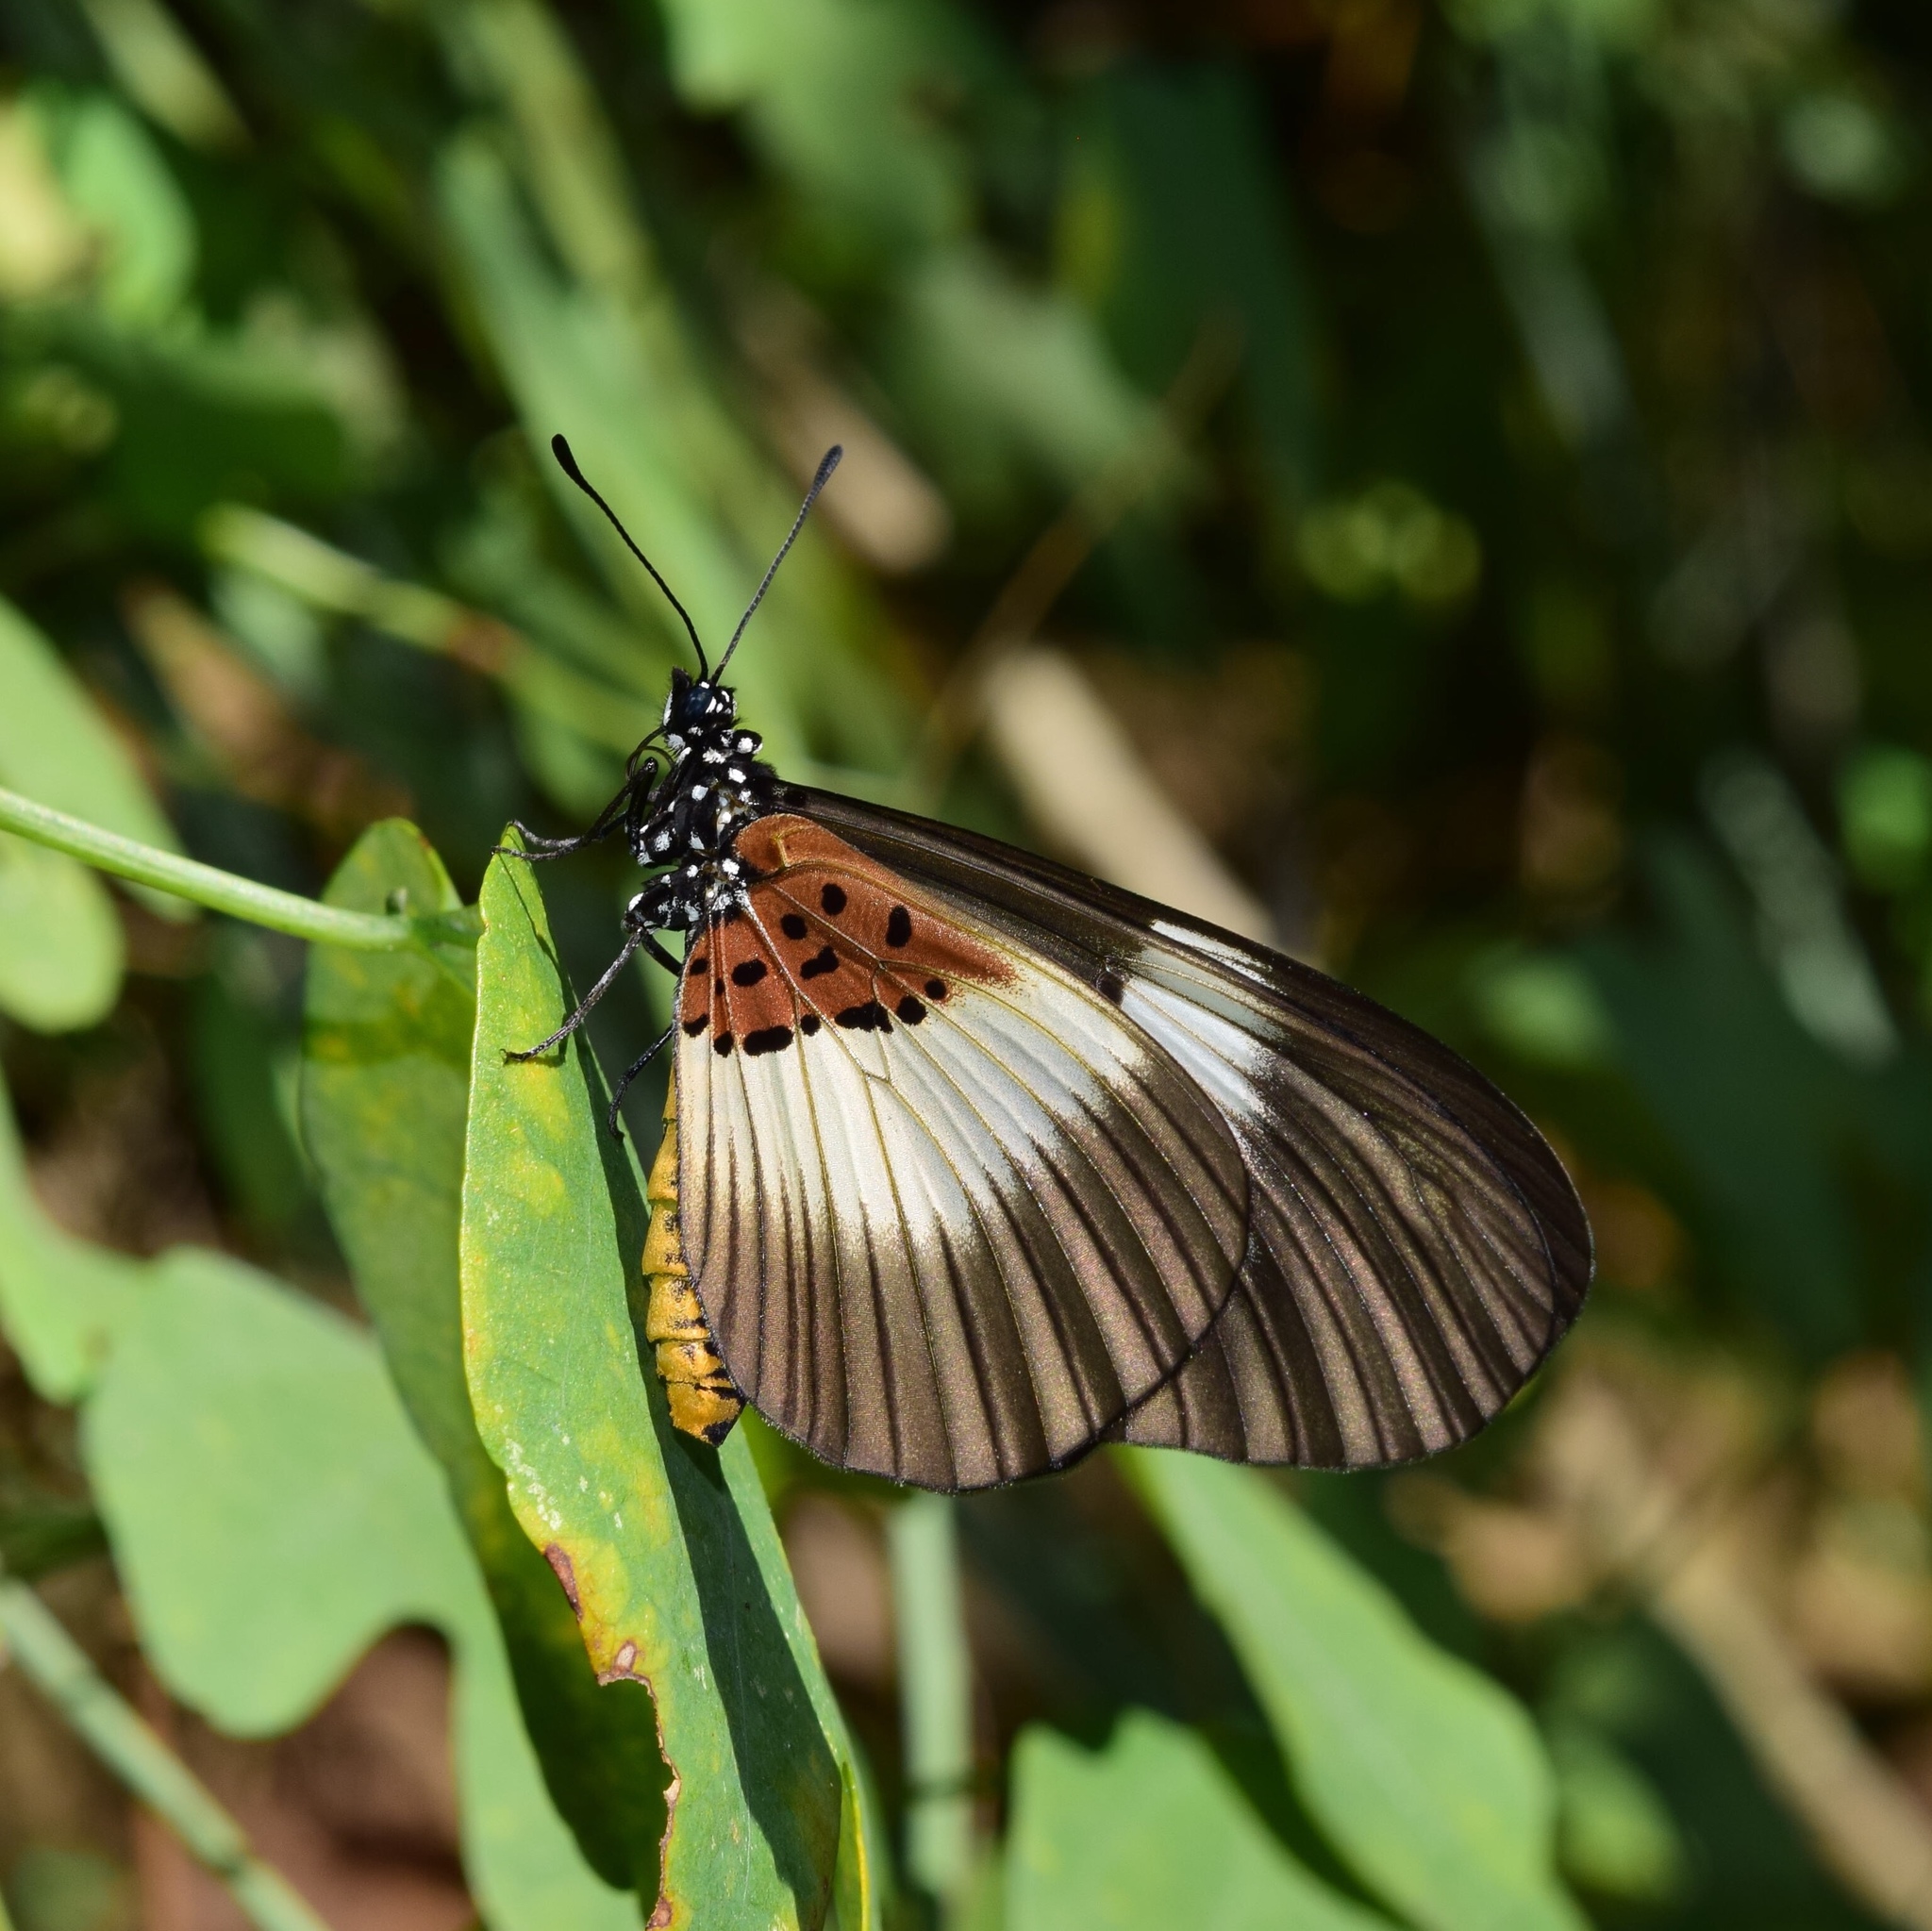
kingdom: Animalia
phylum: Arthropoda
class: Insecta
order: Lepidoptera
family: Nymphalidae
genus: Acraea
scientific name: Acraea Bematistes aganice
